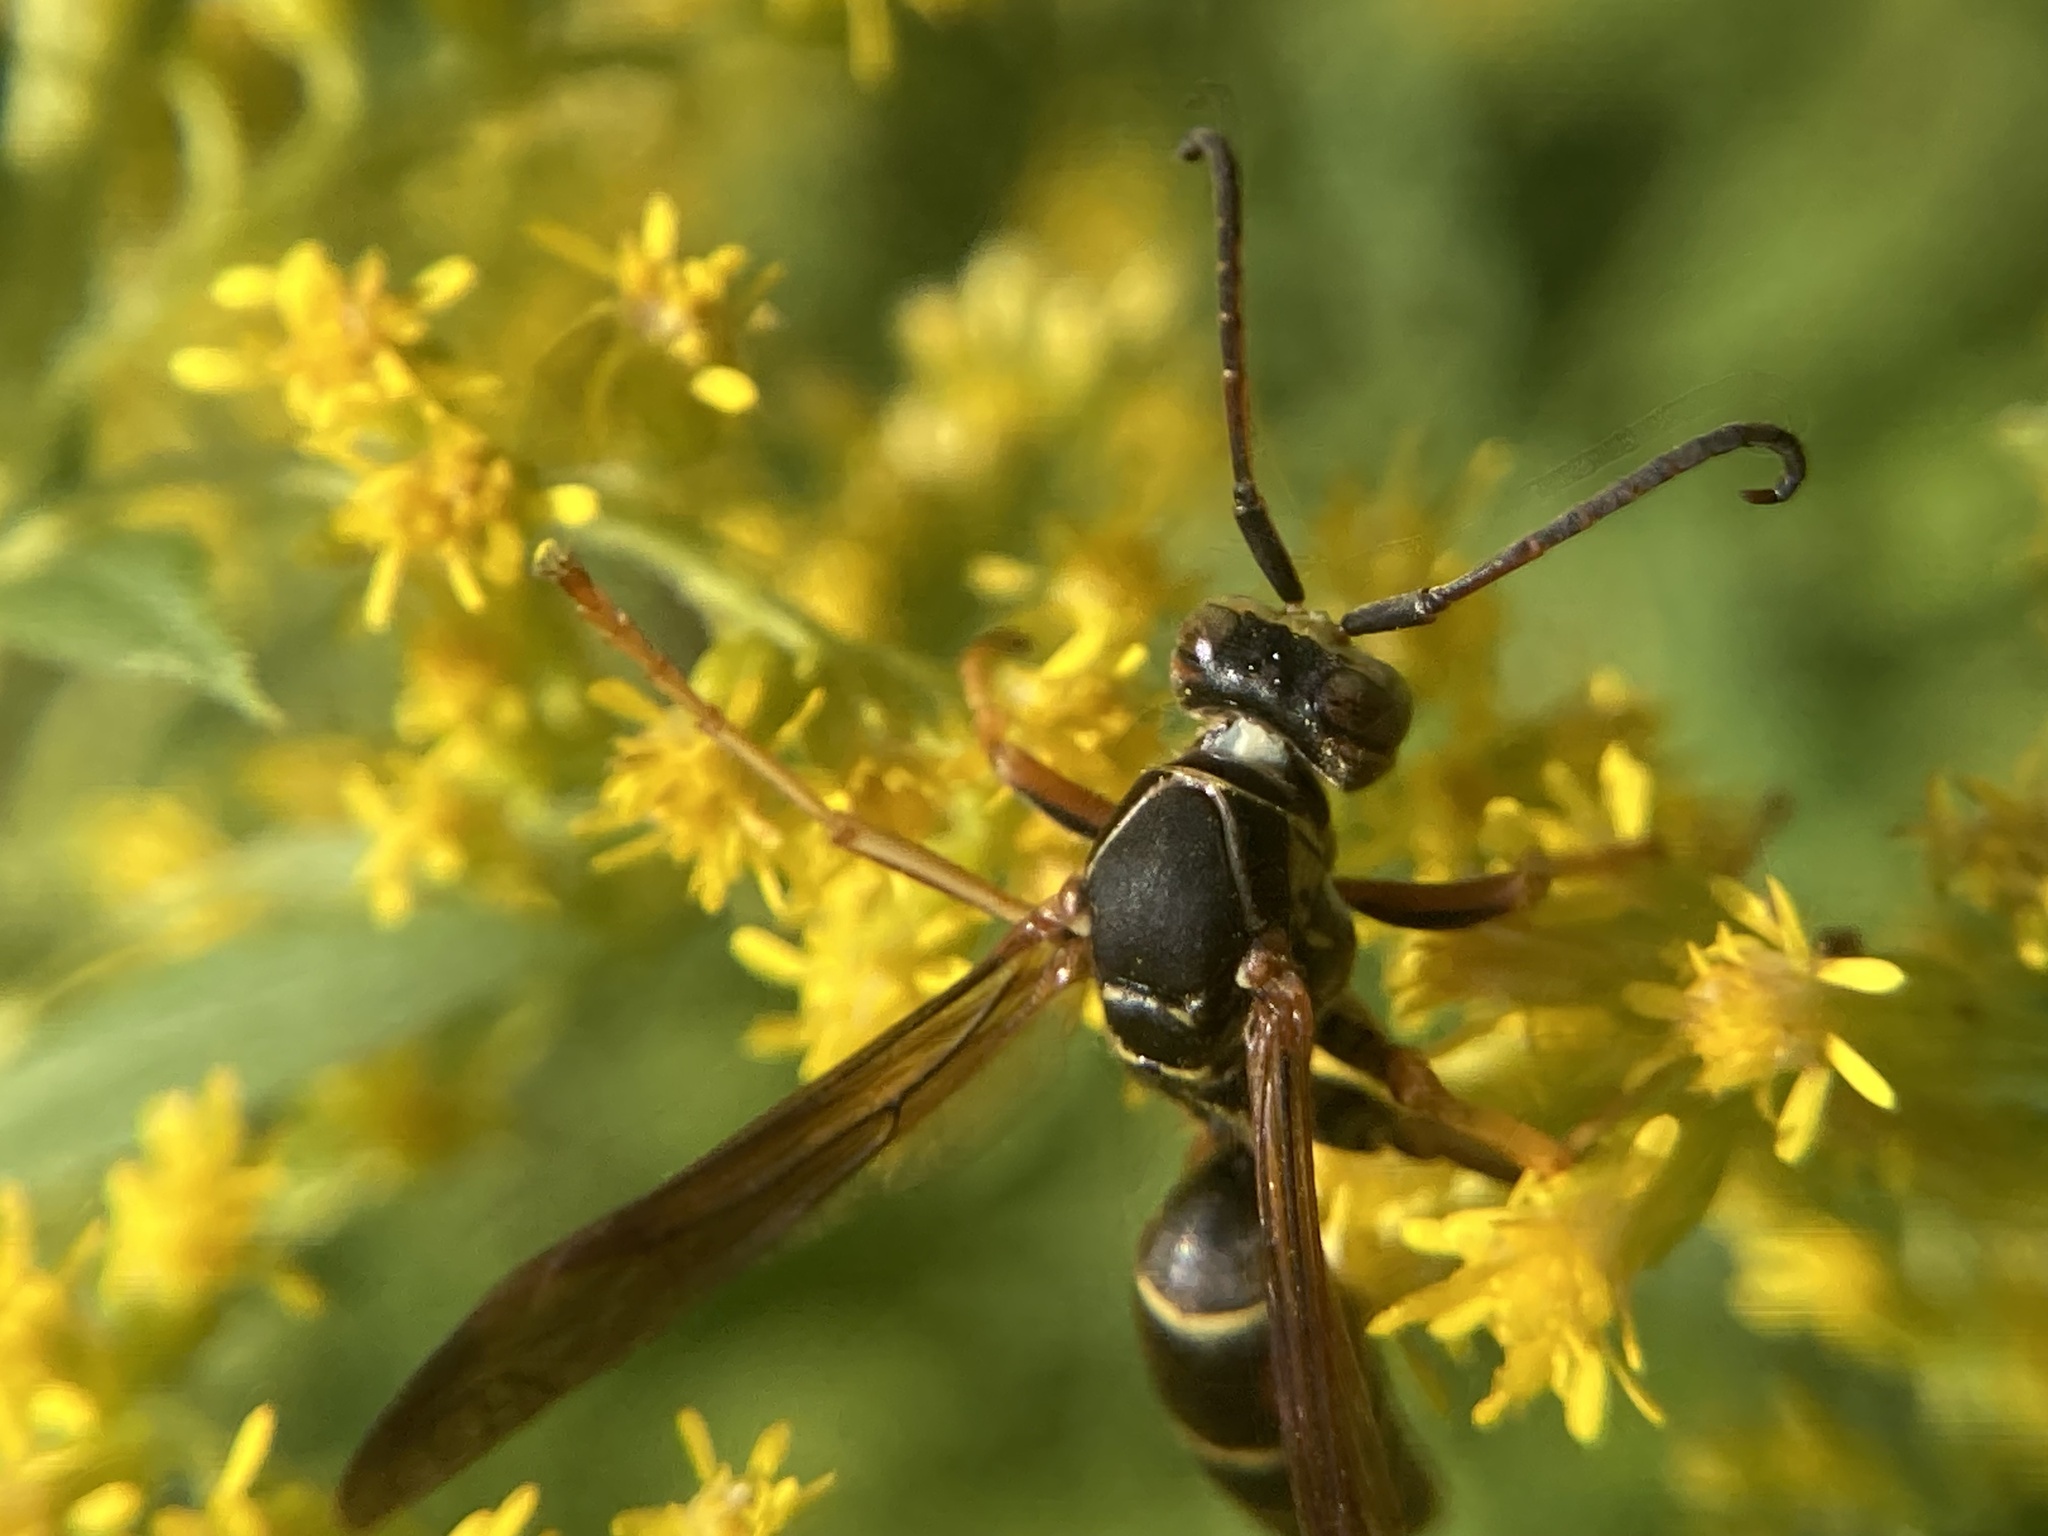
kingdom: Animalia
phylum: Arthropoda
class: Insecta
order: Hymenoptera
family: Eumenidae
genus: Polistes
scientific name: Polistes fuscatus
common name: Dark paper wasp
